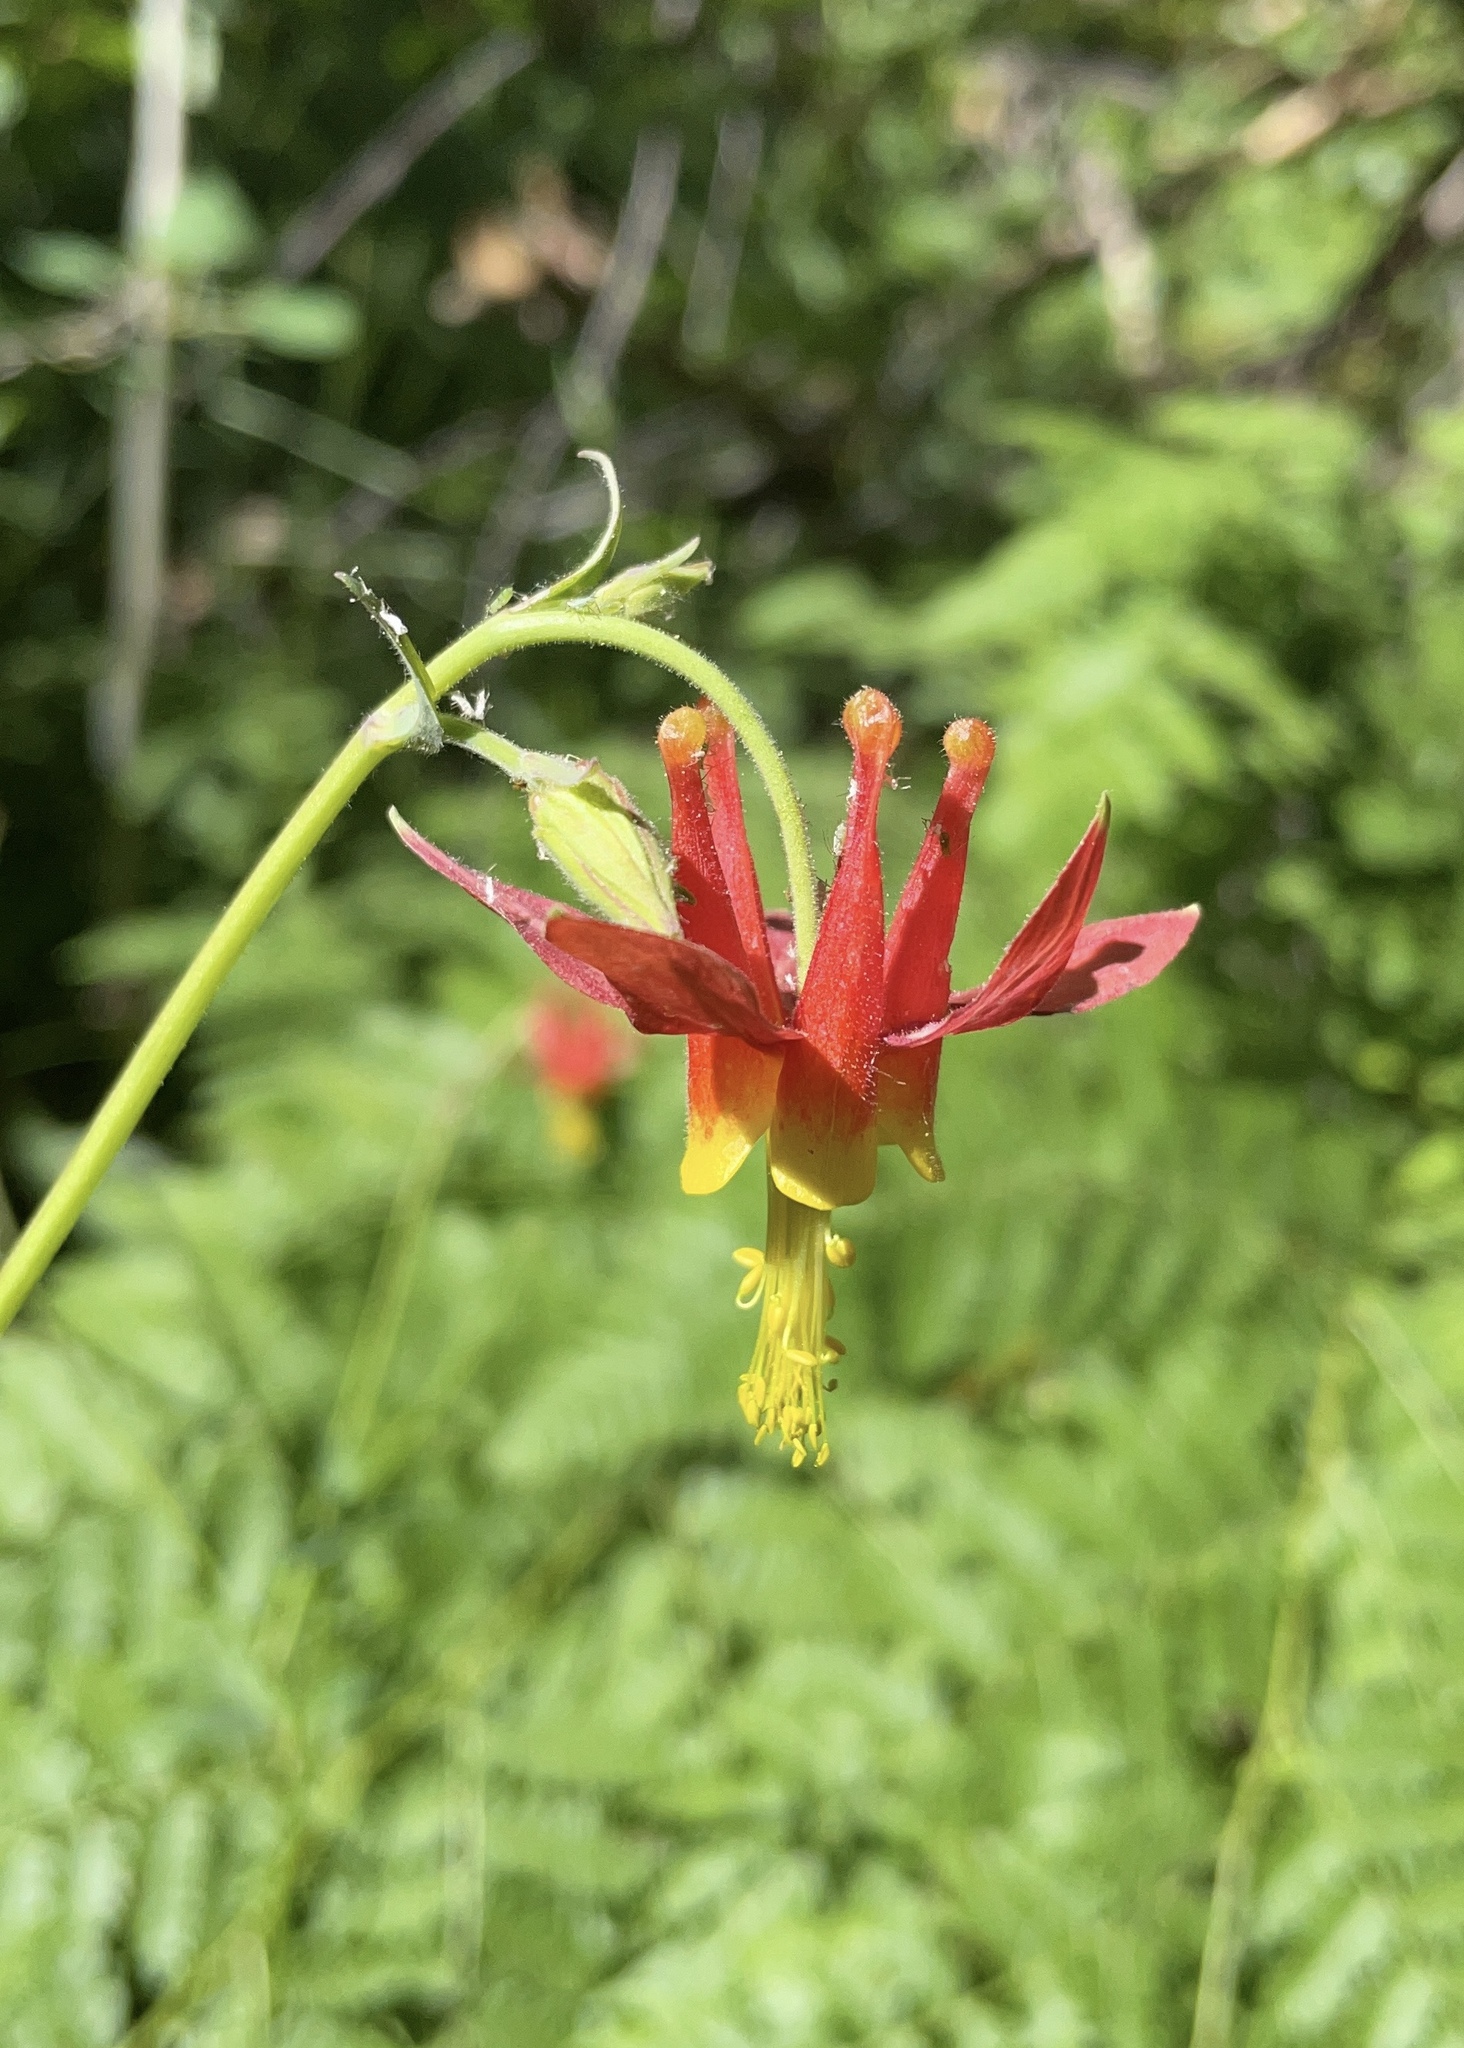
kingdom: Plantae
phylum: Tracheophyta
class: Magnoliopsida
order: Ranunculales
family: Ranunculaceae
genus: Aquilegia
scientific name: Aquilegia formosa
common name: Sitka columbine
